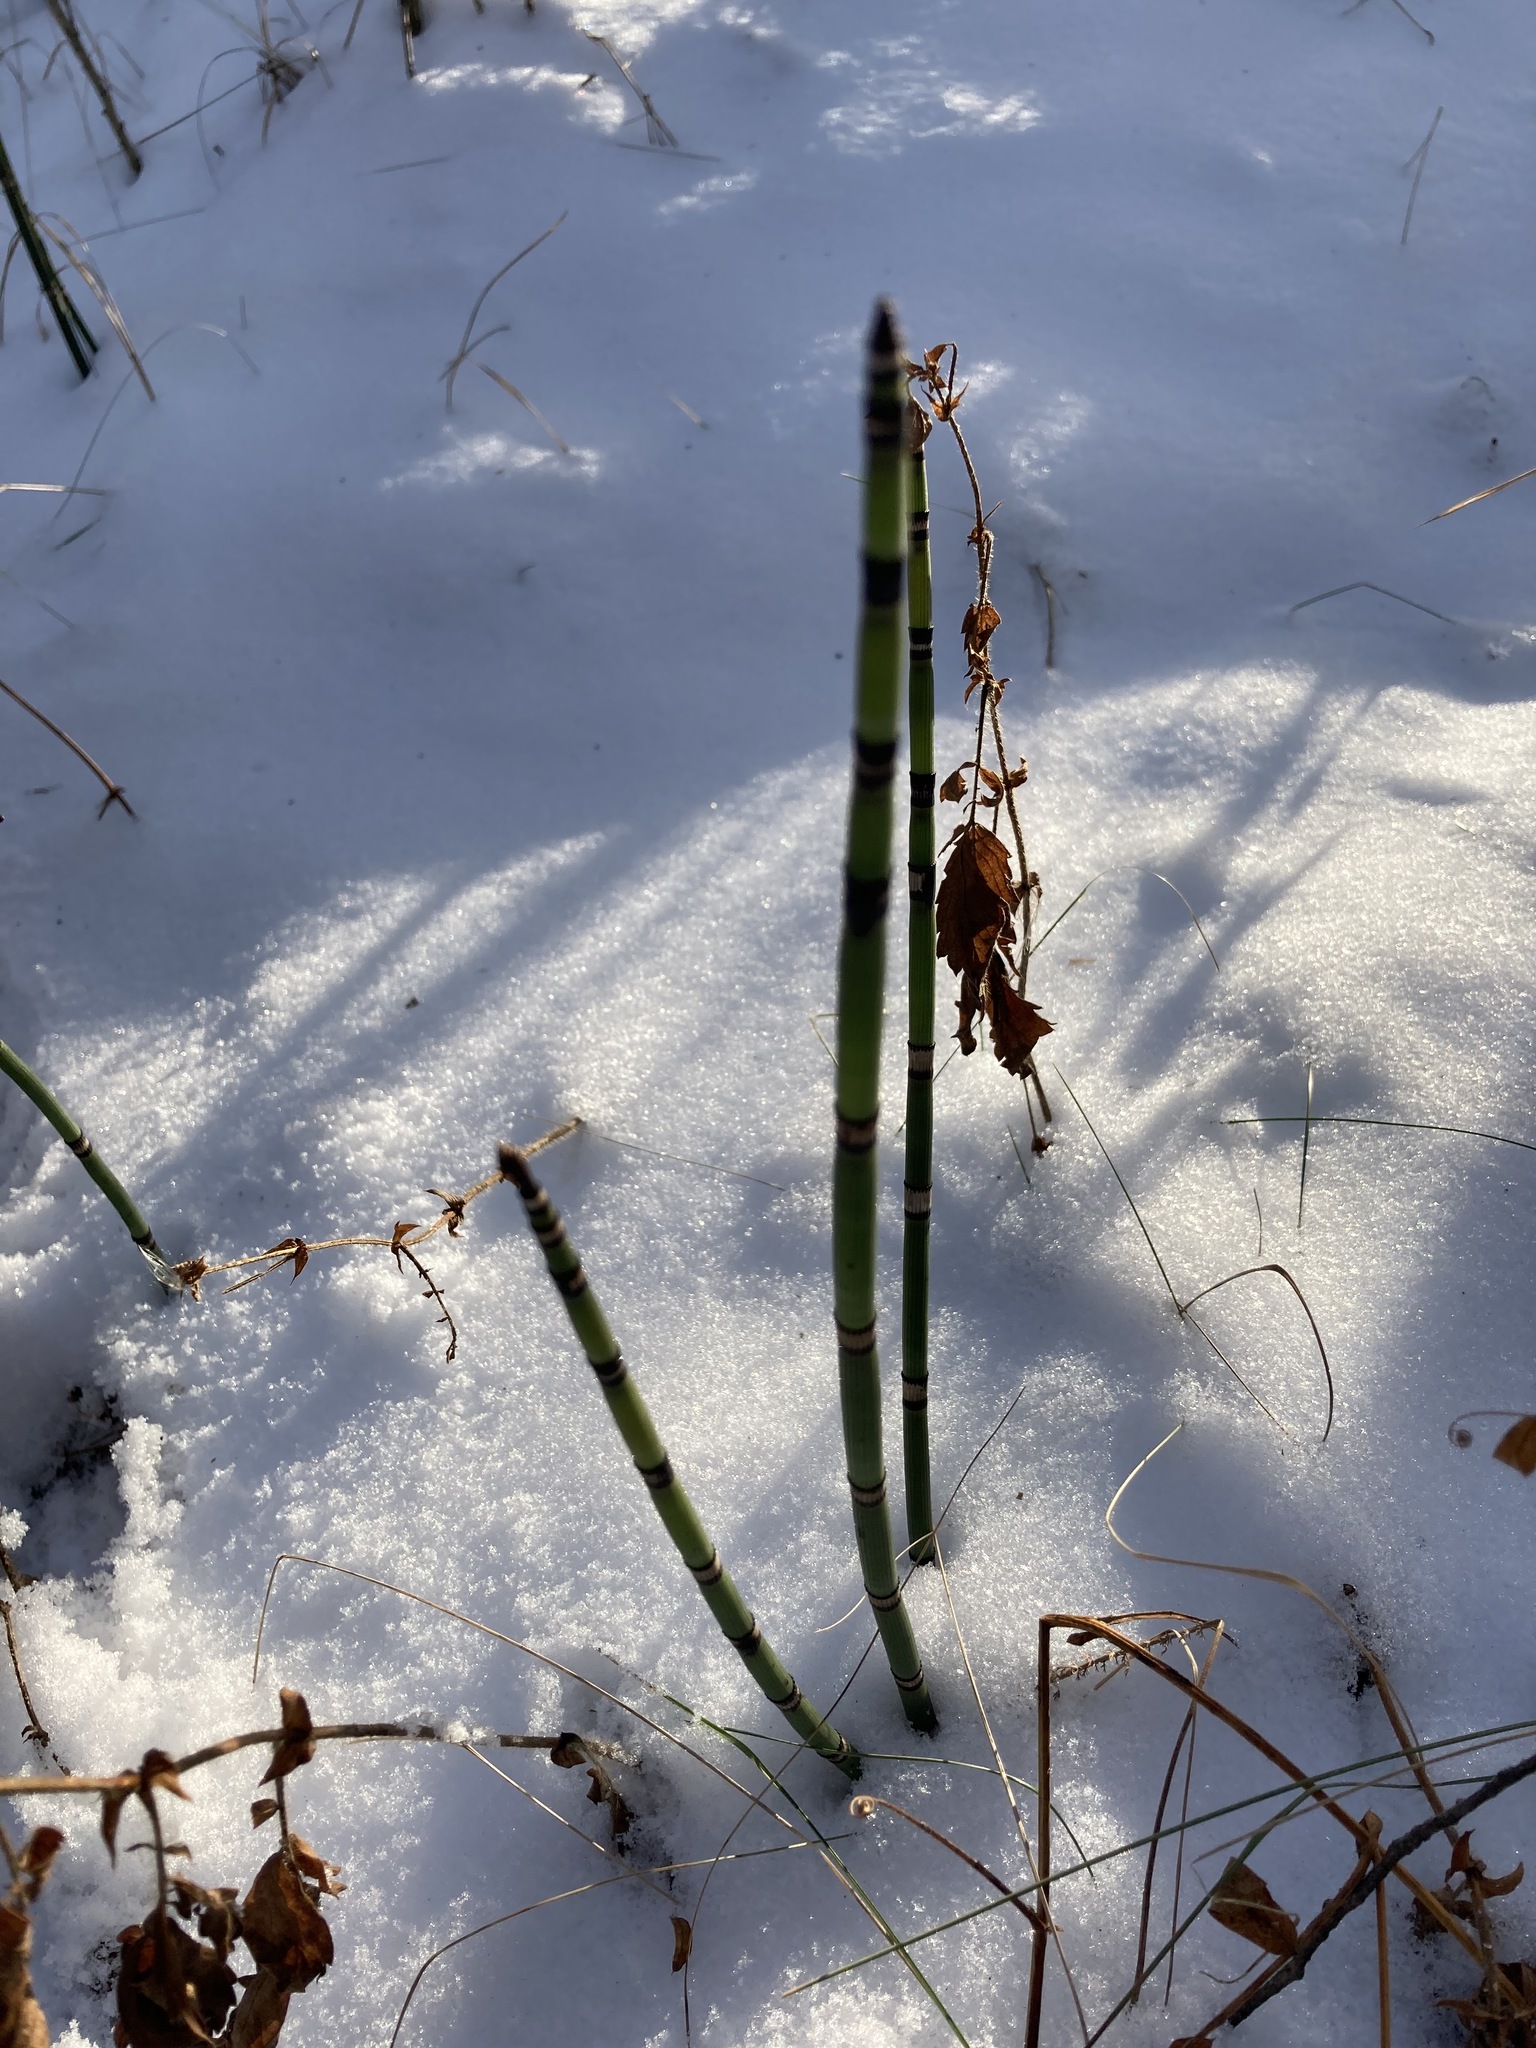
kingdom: Plantae
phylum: Tracheophyta
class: Polypodiopsida
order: Equisetales
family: Equisetaceae
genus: Equisetum
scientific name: Equisetum hyemale
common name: Rough horsetail
